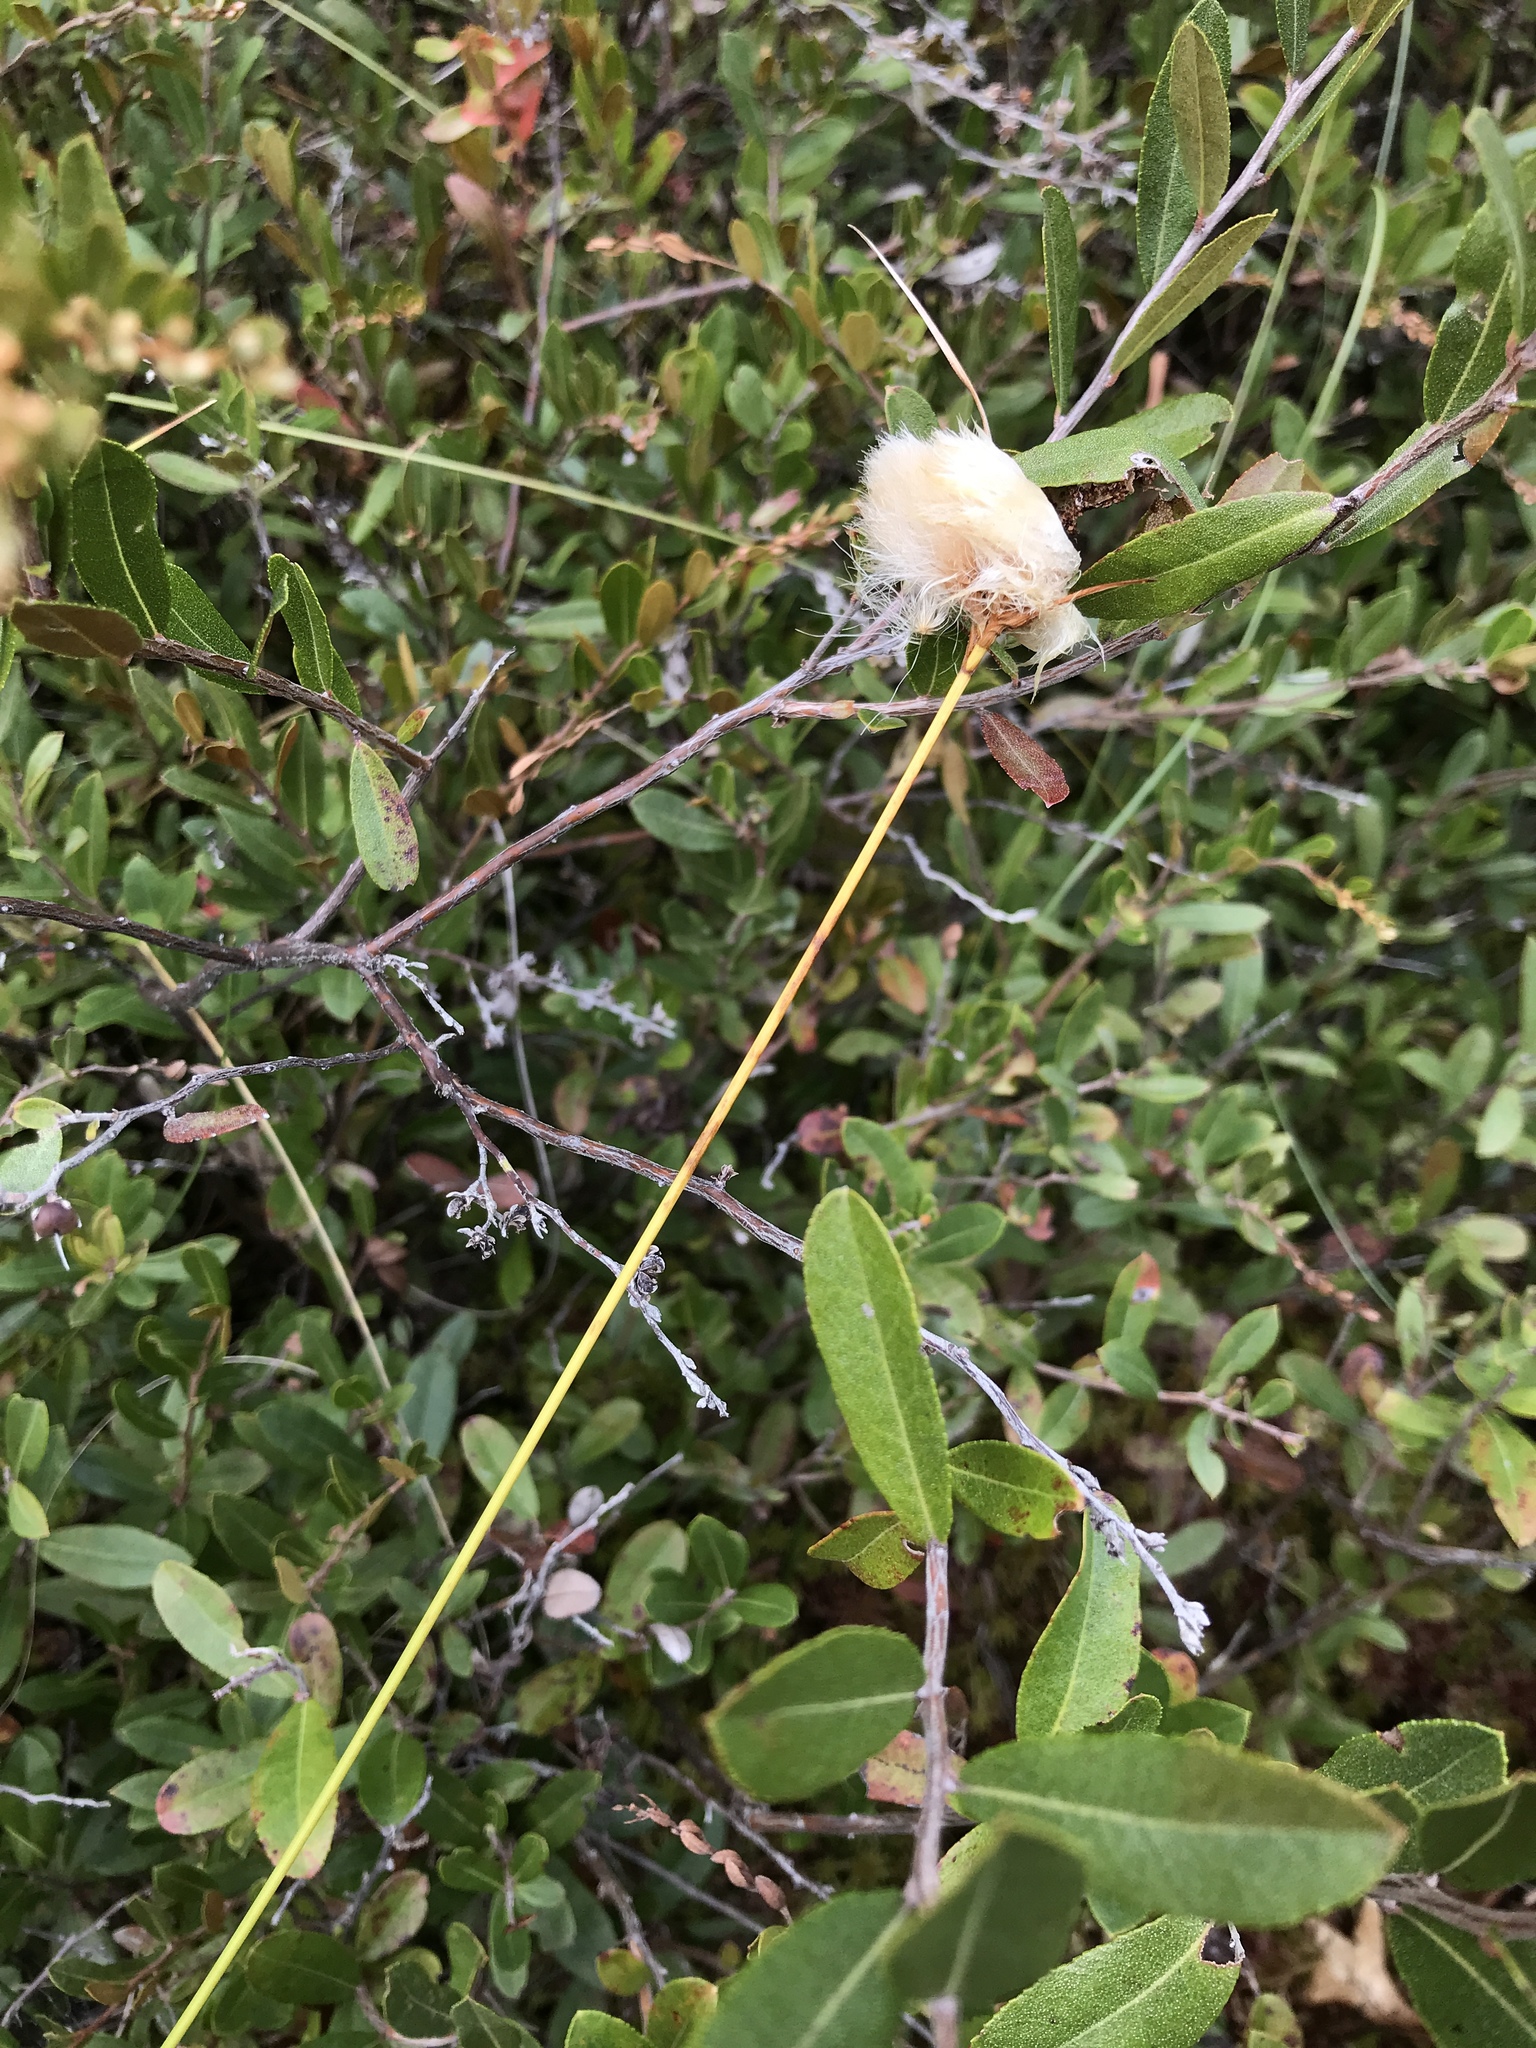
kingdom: Plantae
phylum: Tracheophyta
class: Liliopsida
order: Poales
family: Cyperaceae
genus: Eriophorum
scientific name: Eriophorum virginicum
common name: Tawny cottongrass
